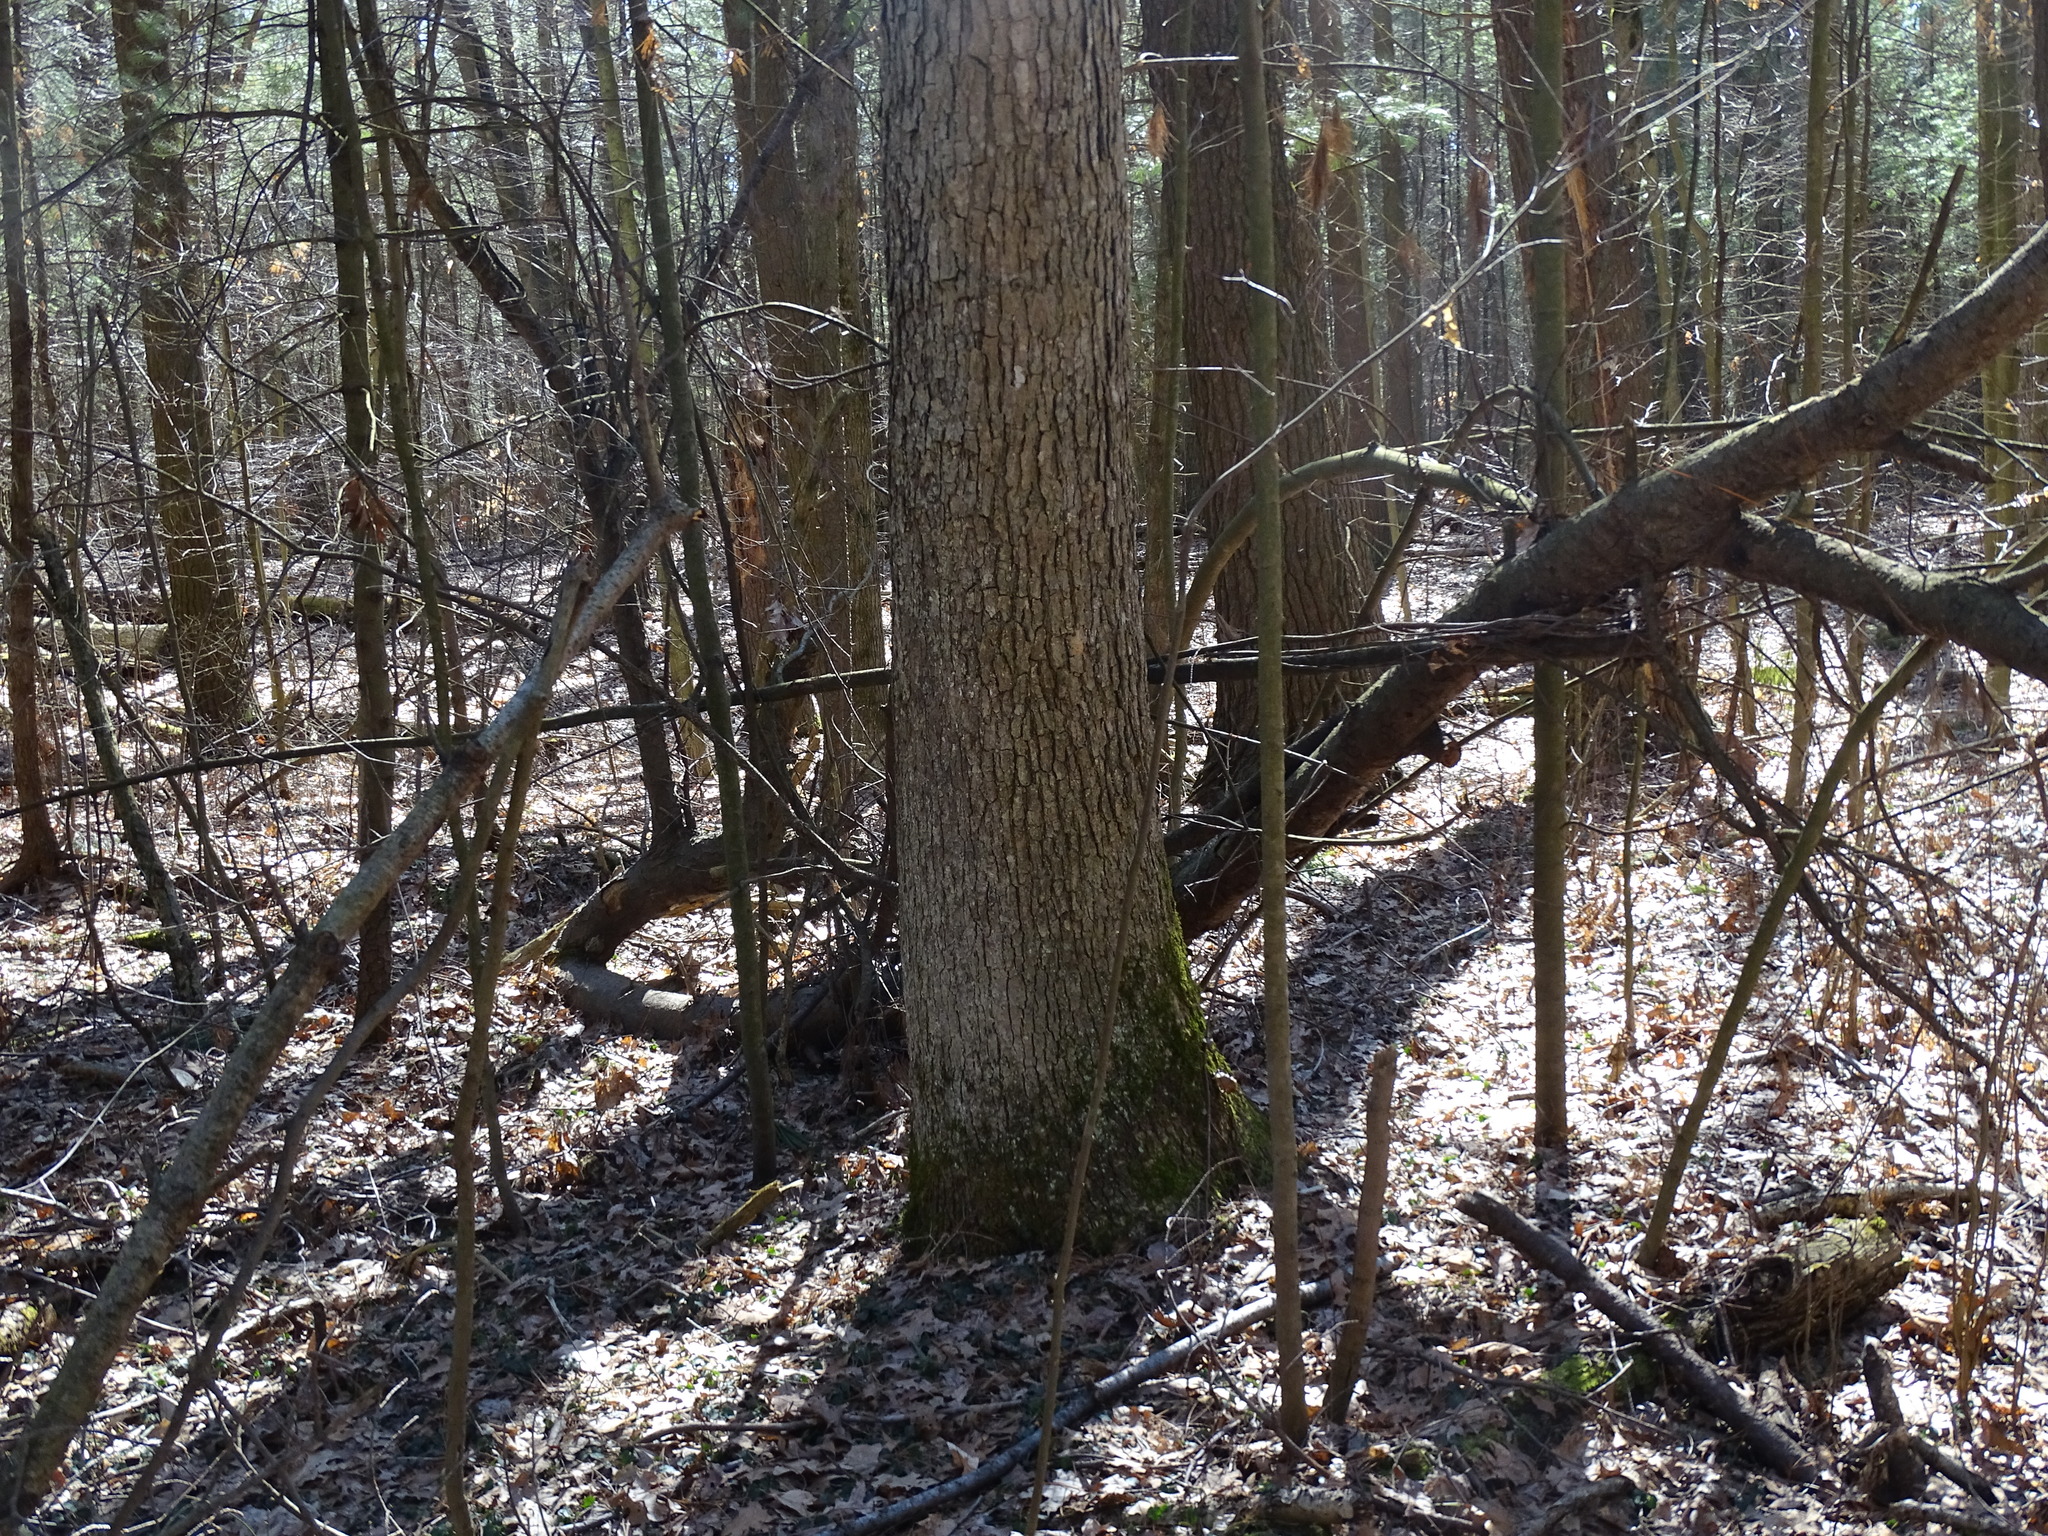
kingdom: Plantae
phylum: Tracheophyta
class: Magnoliopsida
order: Fagales
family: Fagaceae
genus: Quercus
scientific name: Quercus alba
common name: White oak
